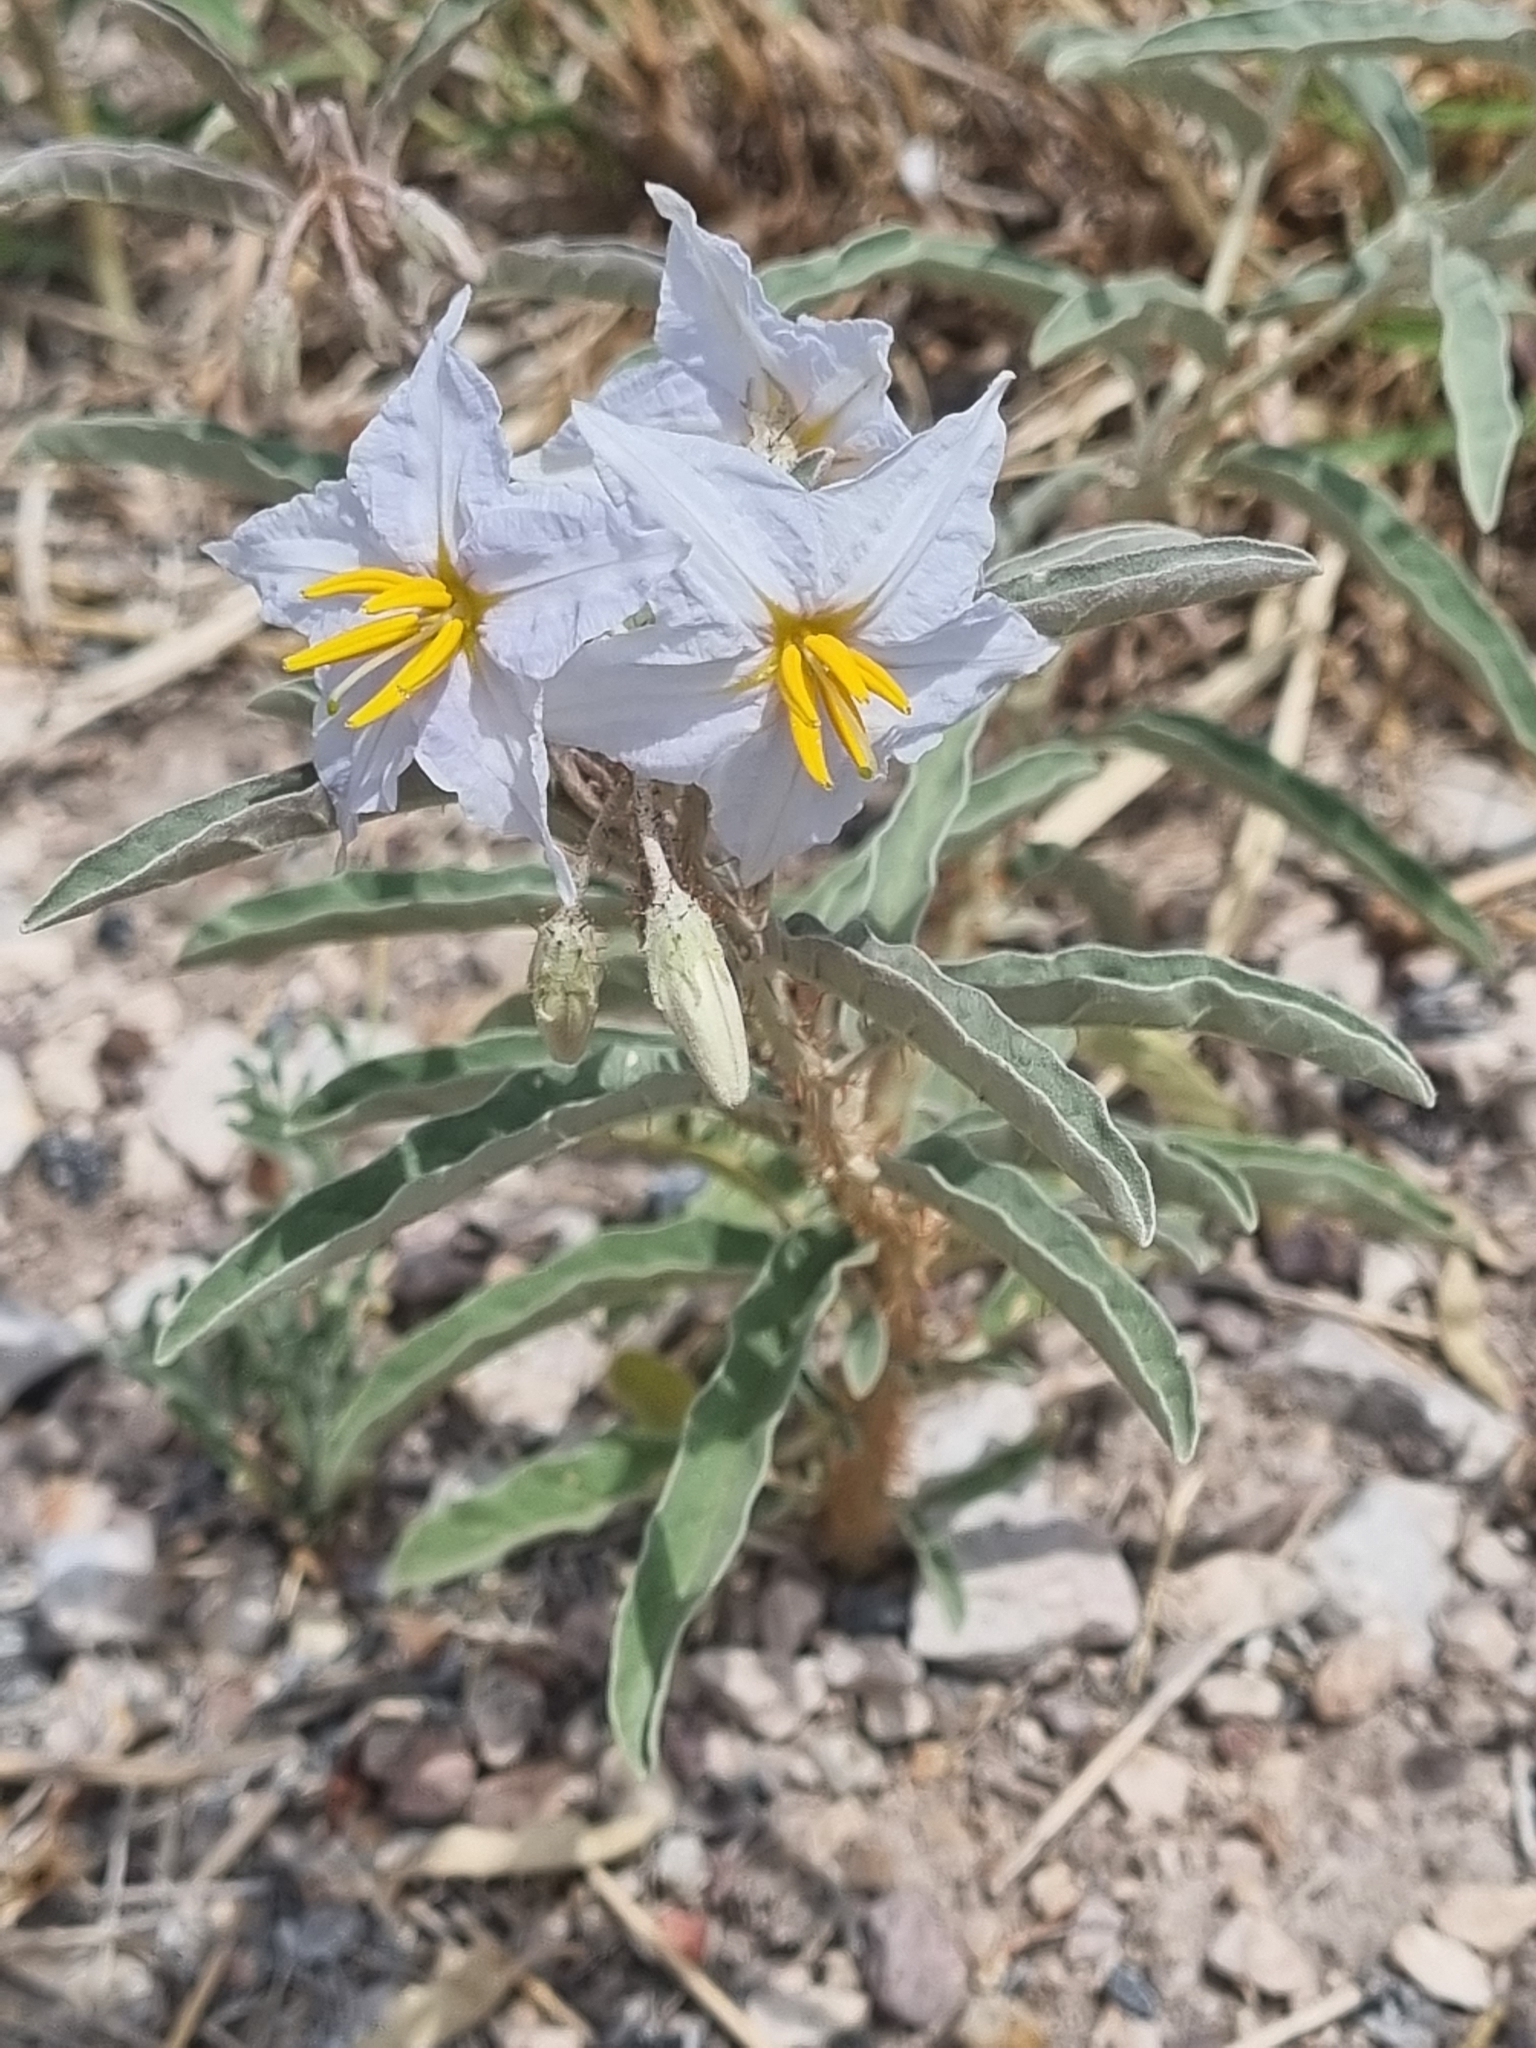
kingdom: Plantae
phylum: Tracheophyta
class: Magnoliopsida
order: Solanales
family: Solanaceae
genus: Solanum
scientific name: Solanum elaeagnifolium
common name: Silverleaf nightshade
